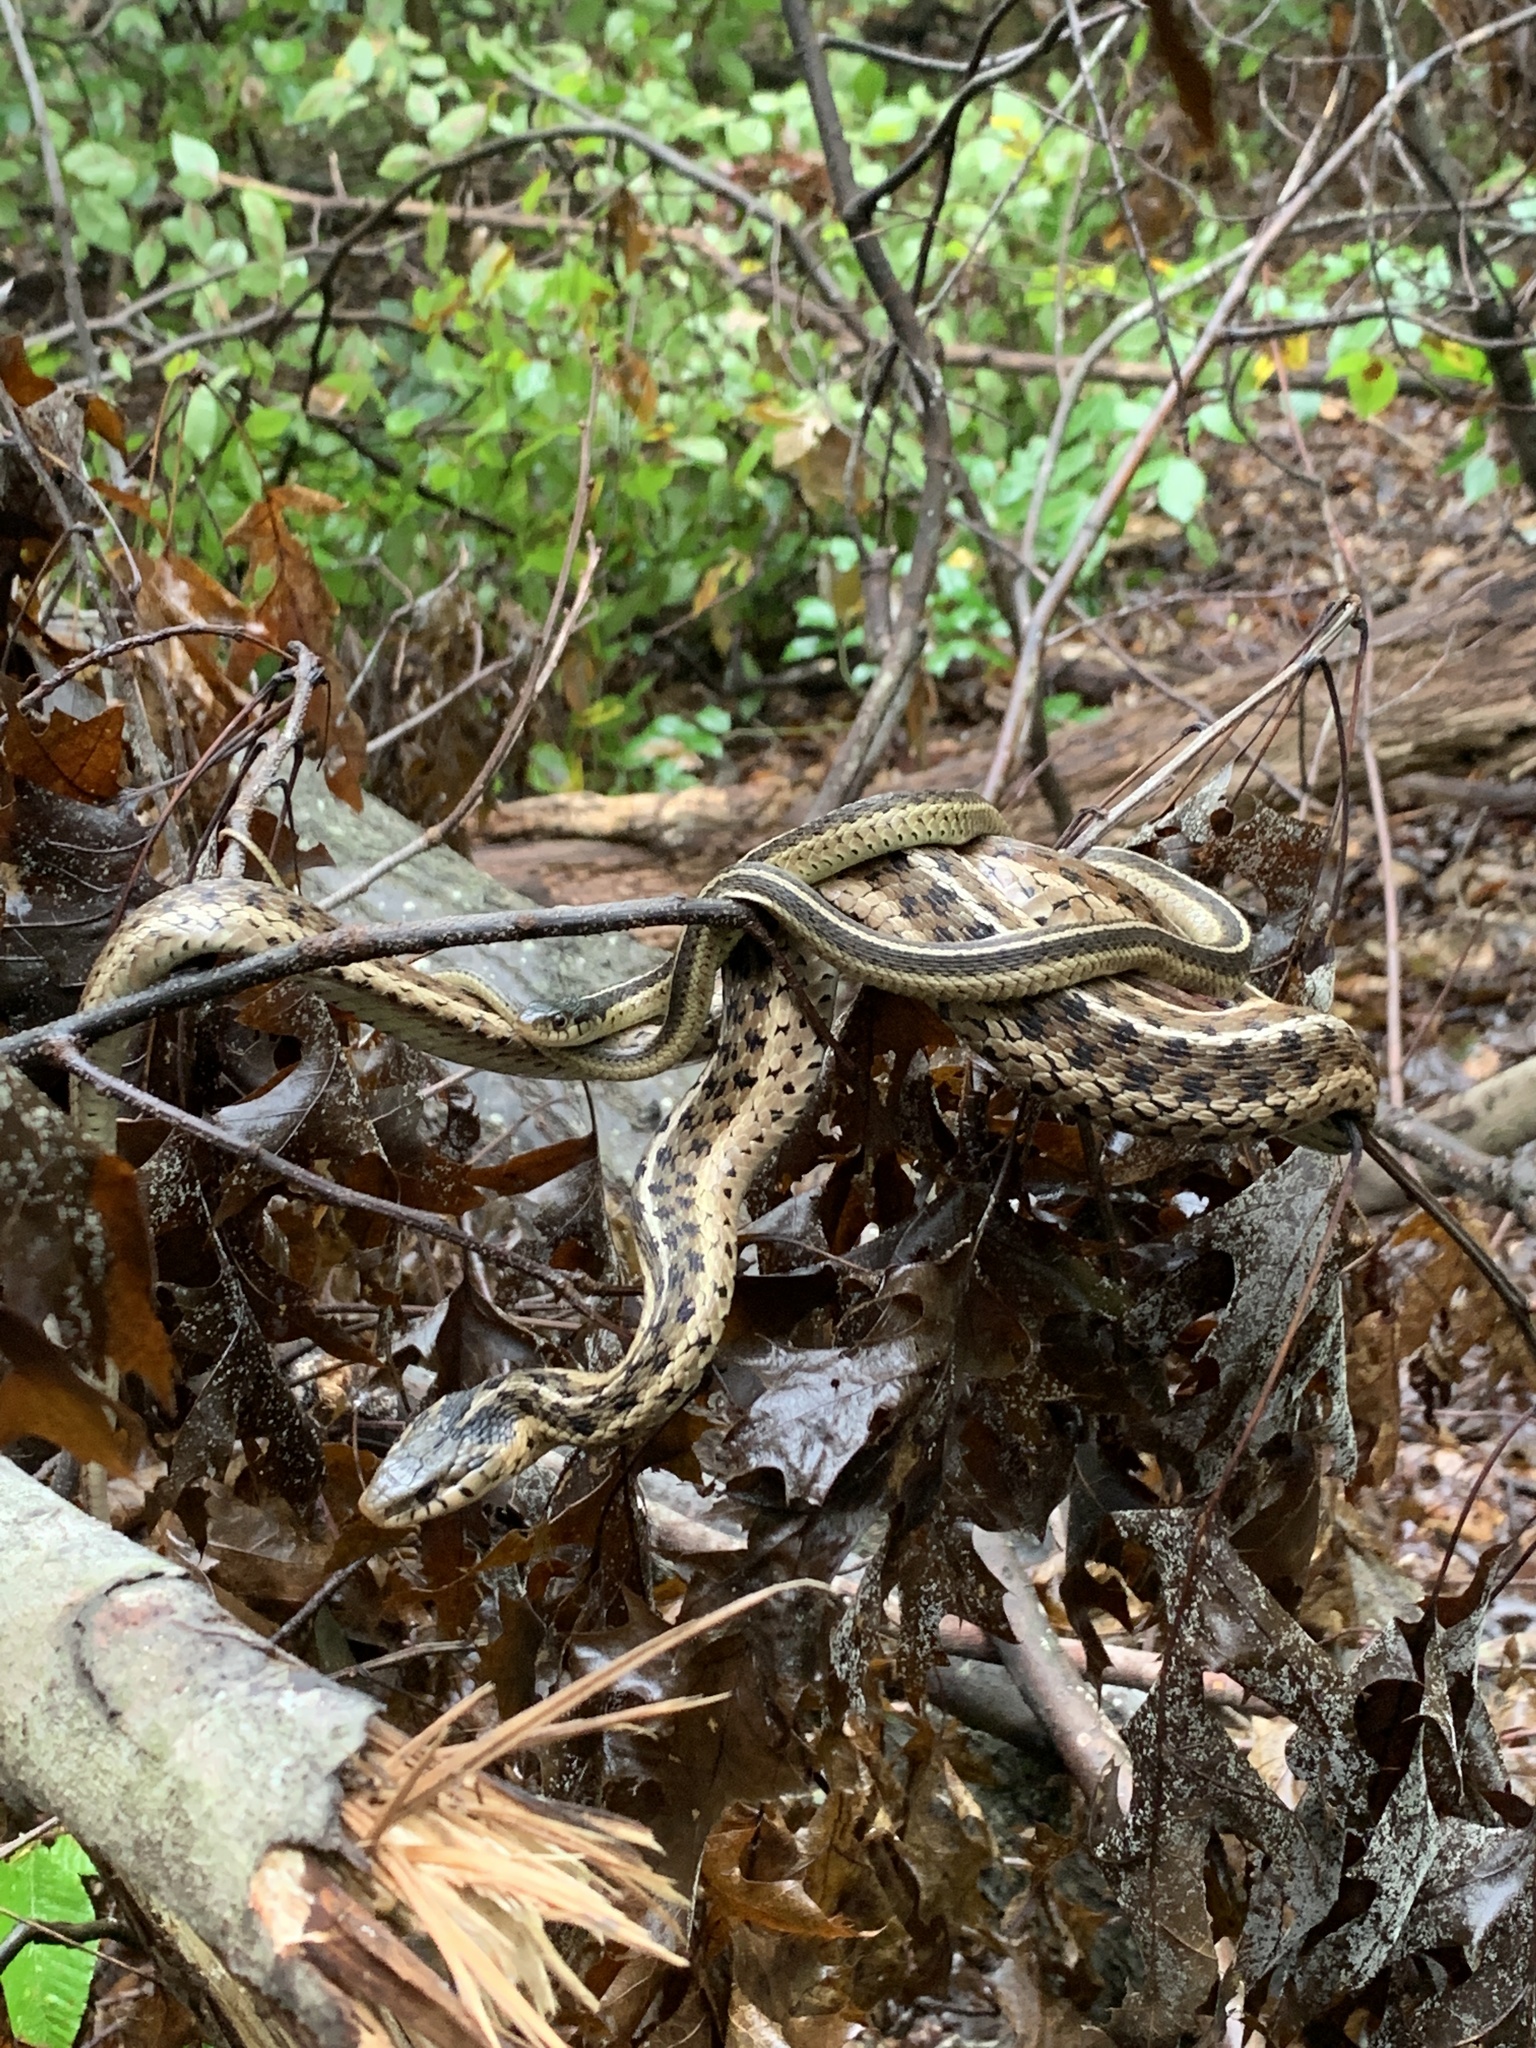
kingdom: Animalia
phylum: Chordata
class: Squamata
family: Colubridae
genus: Thamnophis
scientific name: Thamnophis sirtalis
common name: Common garter snake
